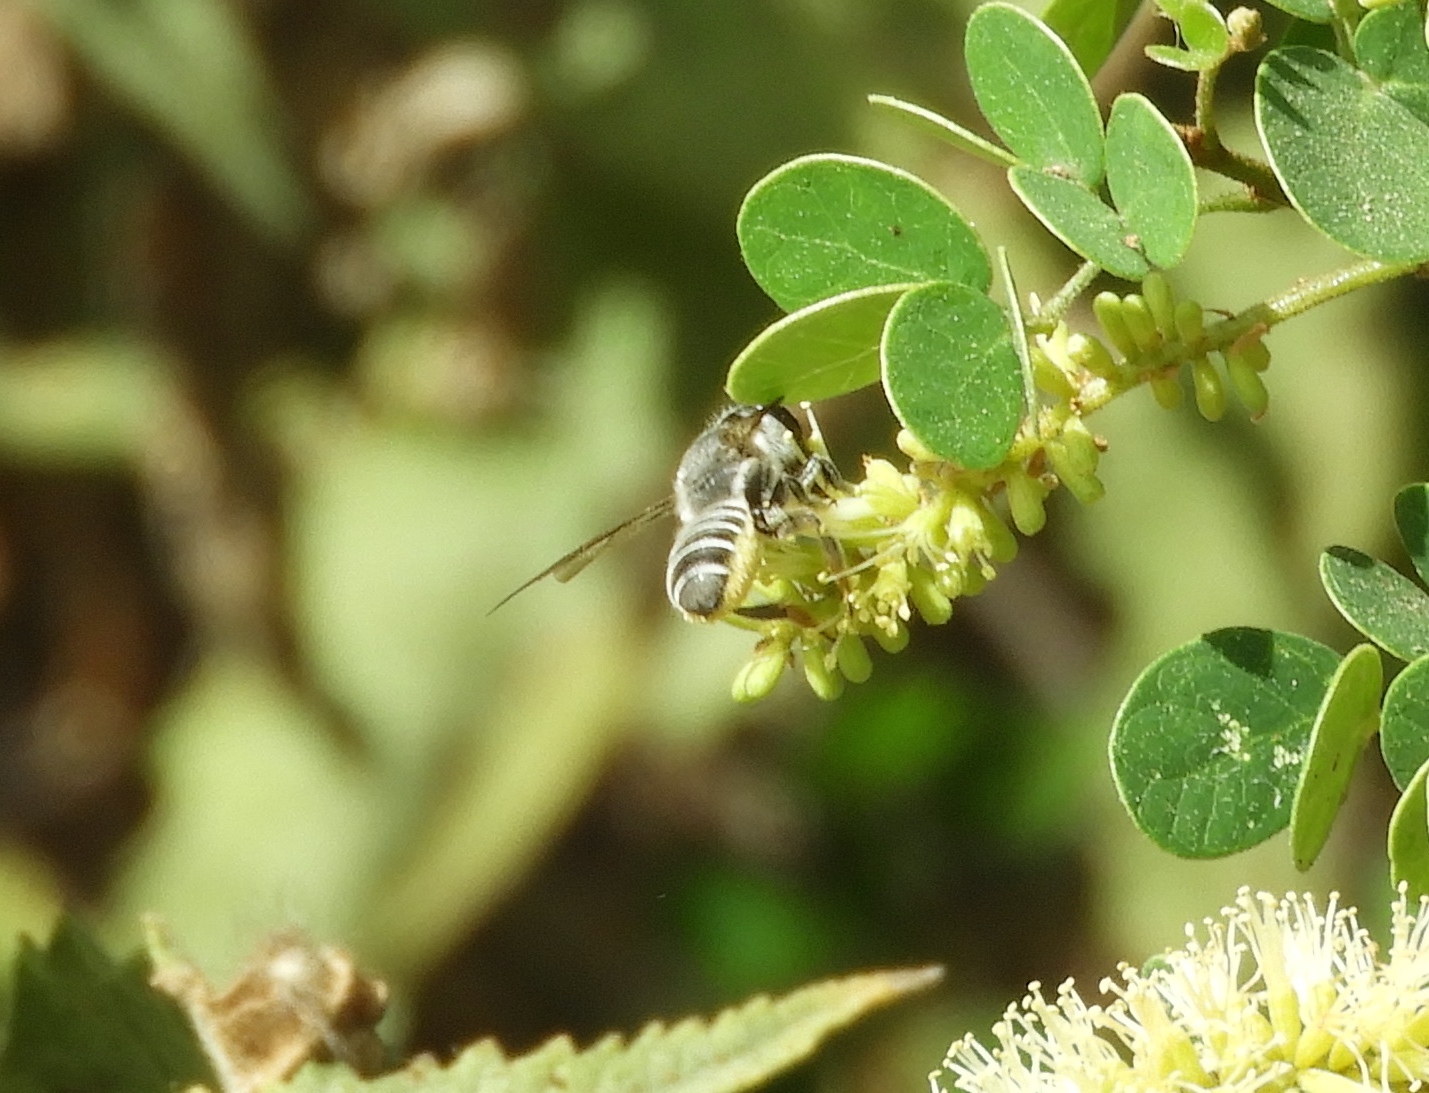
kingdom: Animalia
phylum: Arthropoda
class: Insecta
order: Hymenoptera
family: Megachilidae
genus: Megachile
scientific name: Megachile
